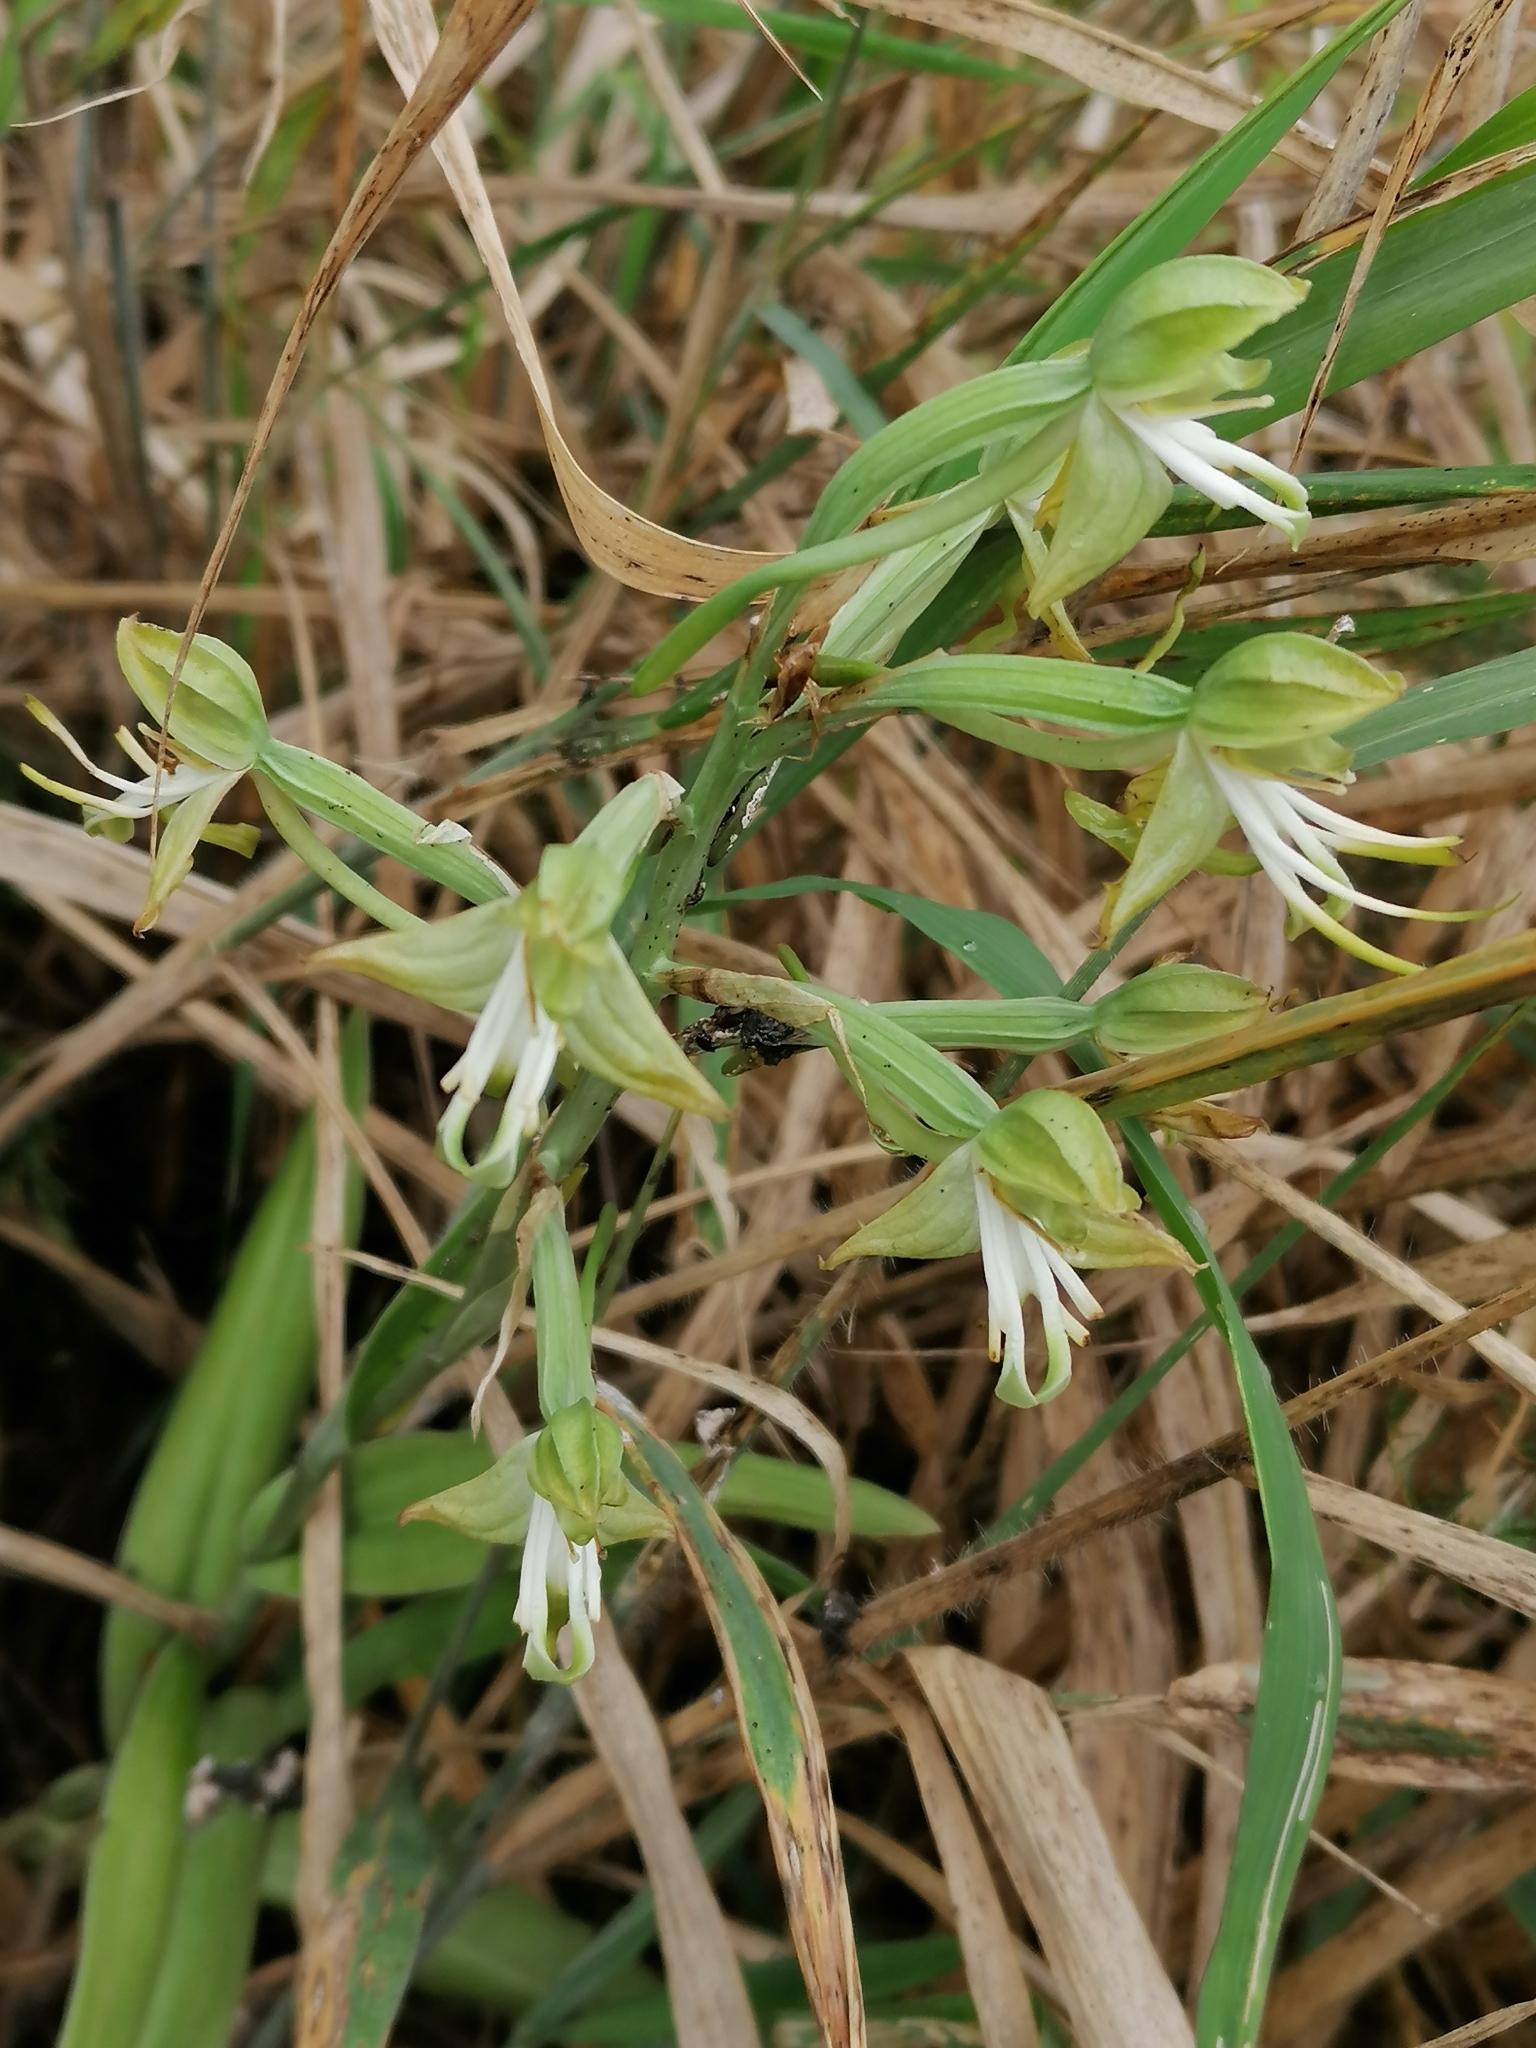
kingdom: Plantae
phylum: Tracheophyta
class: Liliopsida
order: Asparagales
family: Orchidaceae
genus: Bonatea
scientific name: Bonatea antennifera
